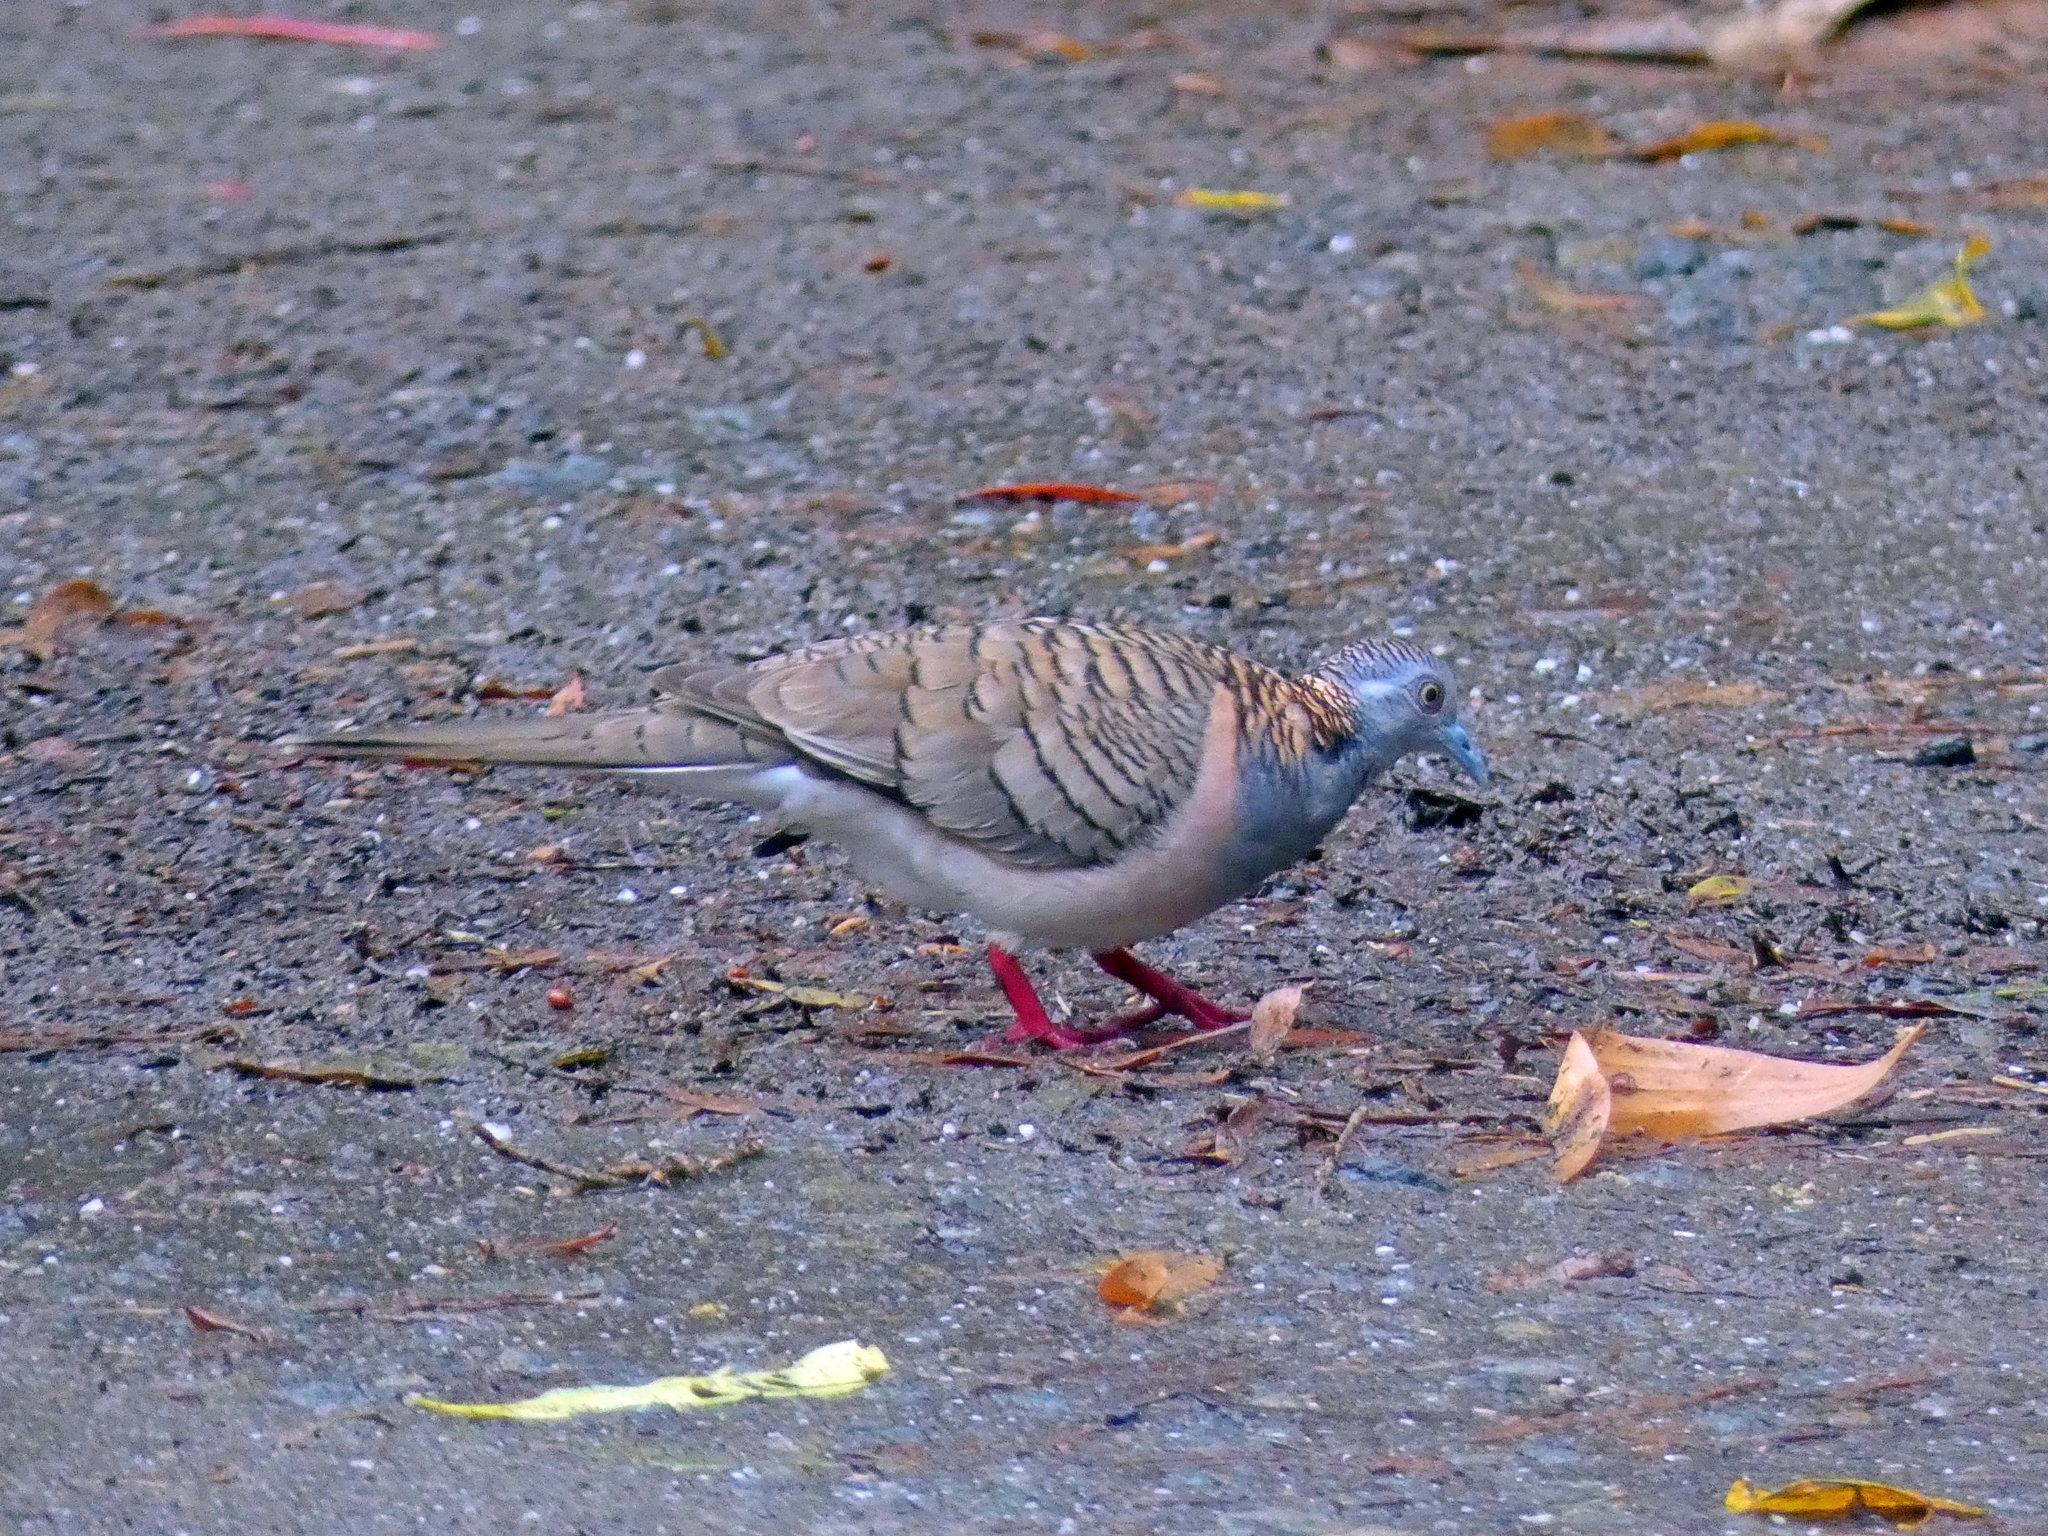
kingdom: Animalia
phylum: Chordata
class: Aves
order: Columbiformes
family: Columbidae
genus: Geopelia
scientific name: Geopelia humeralis
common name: Bar-shouldered dove
